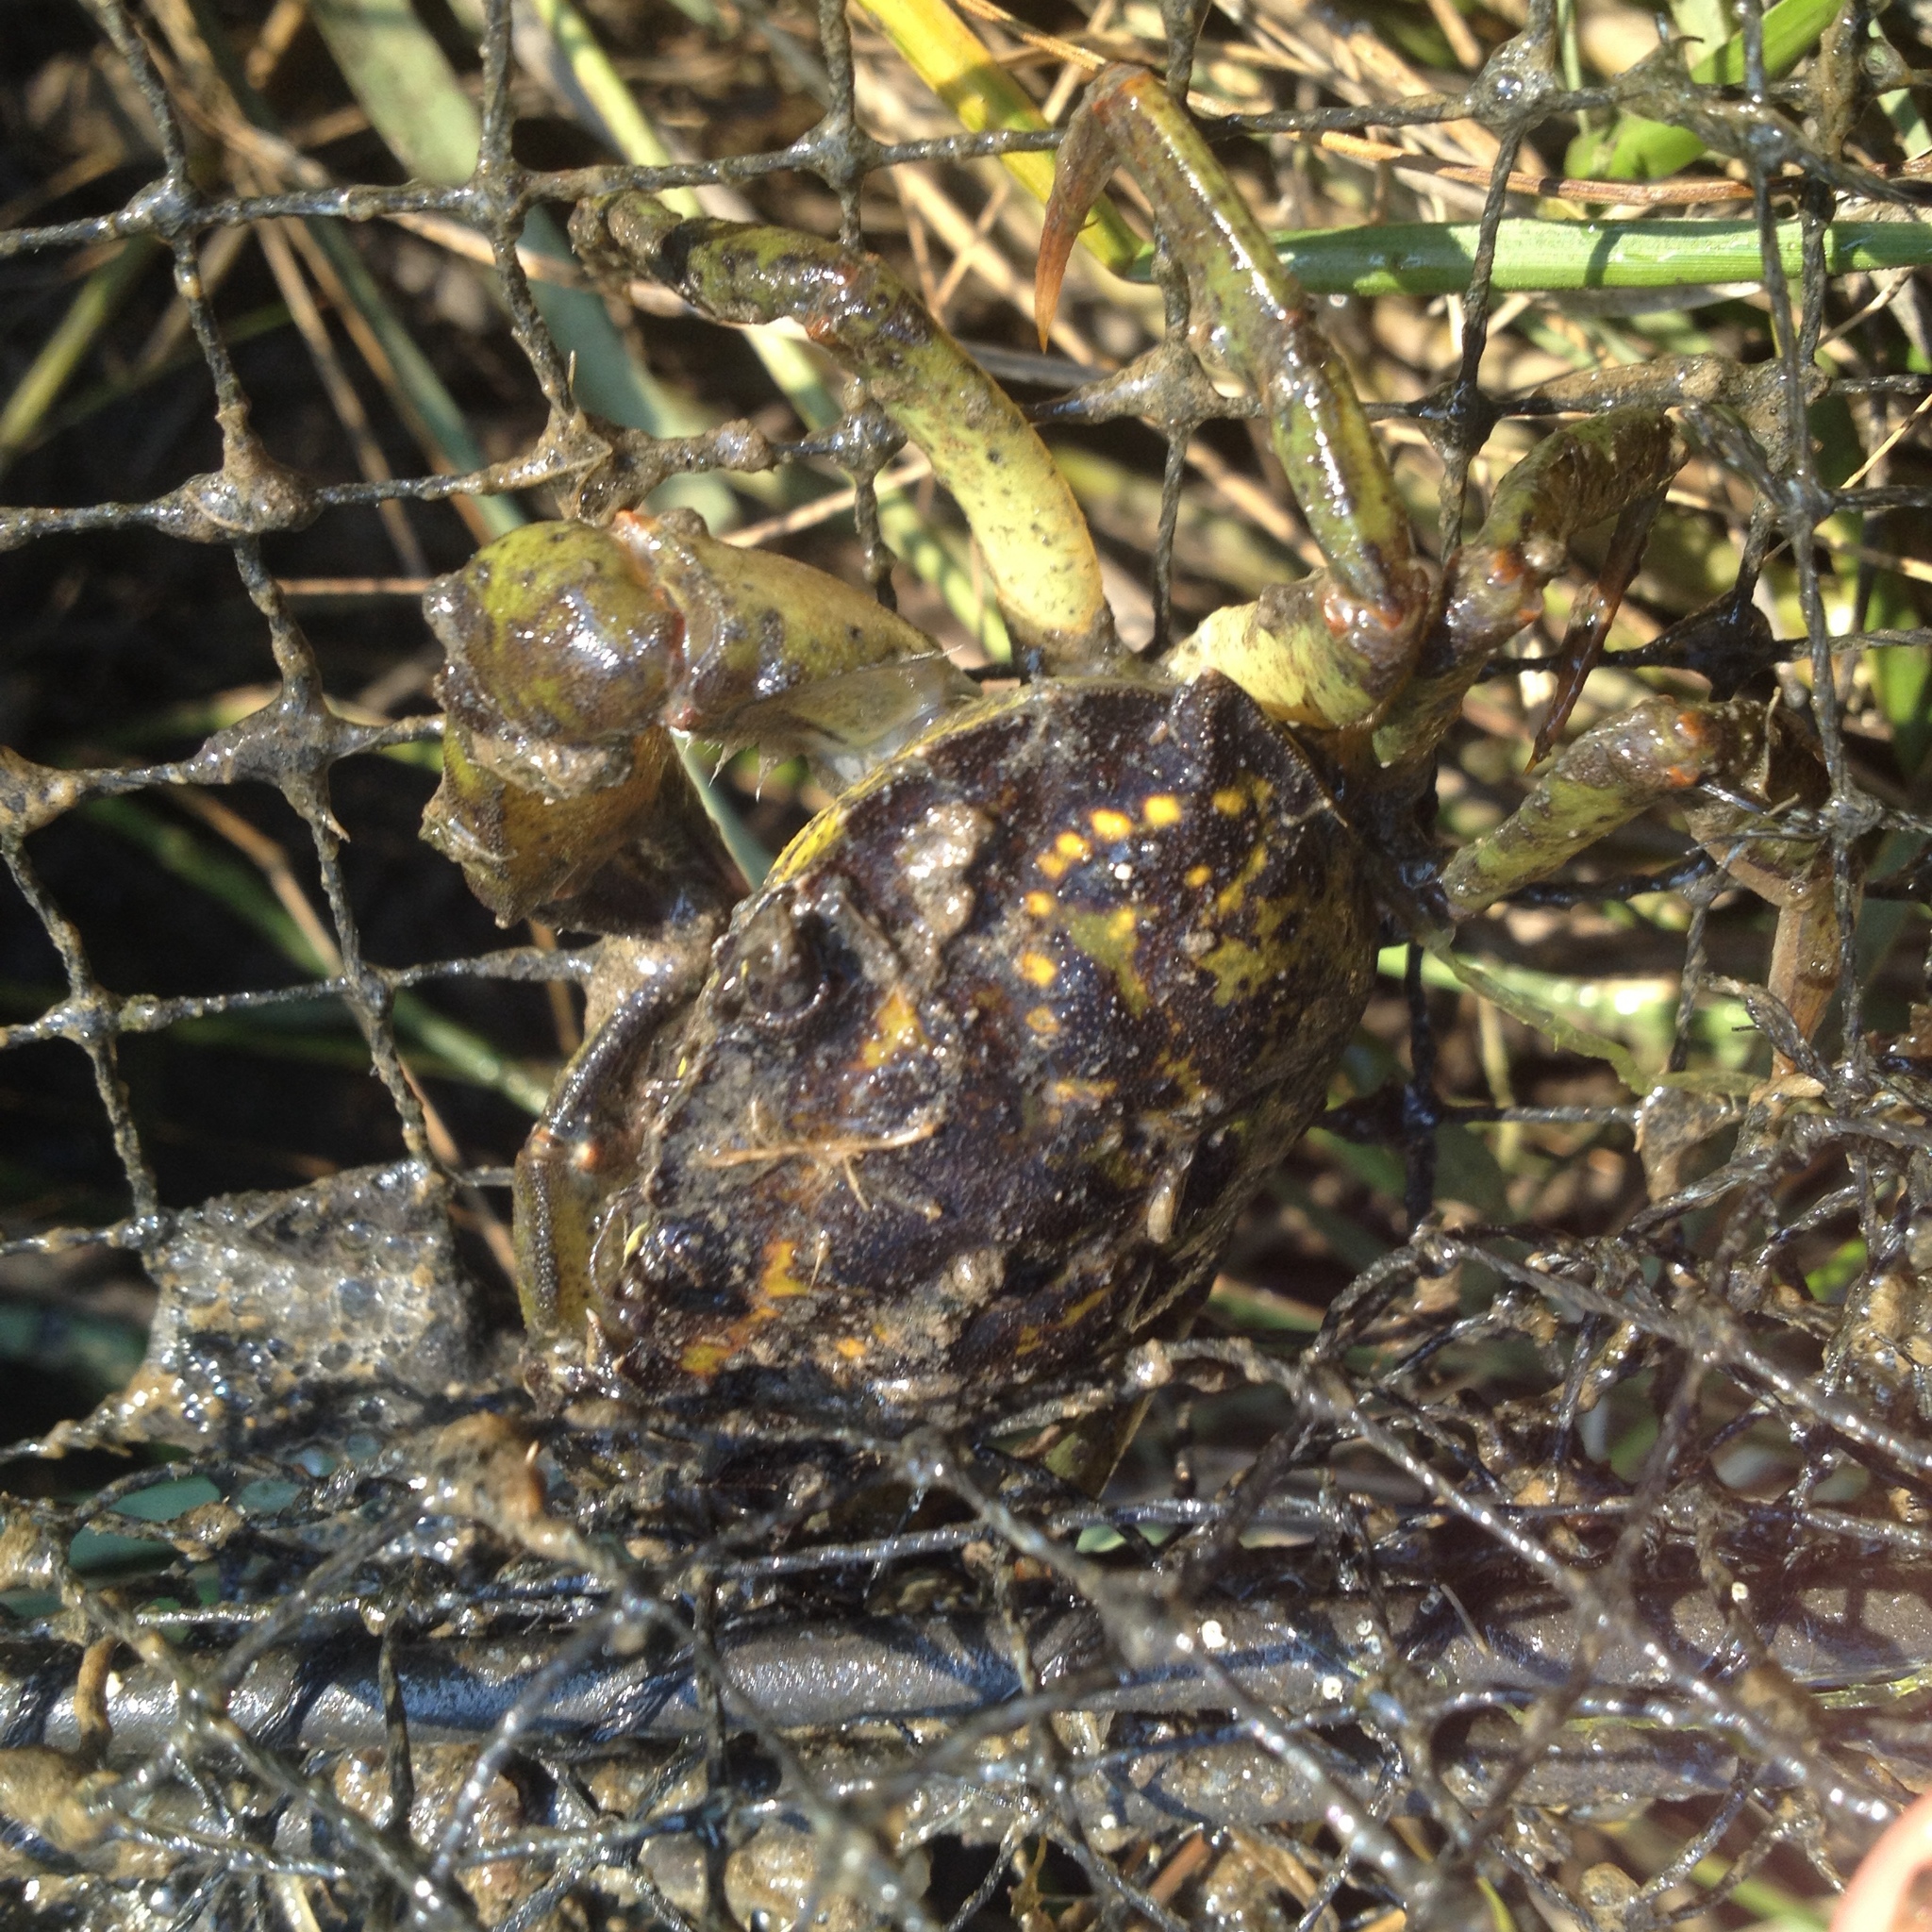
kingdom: Animalia
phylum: Arthropoda
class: Malacostraca
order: Decapoda
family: Carcinidae
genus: Carcinus
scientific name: Carcinus maenas
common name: European green crab
